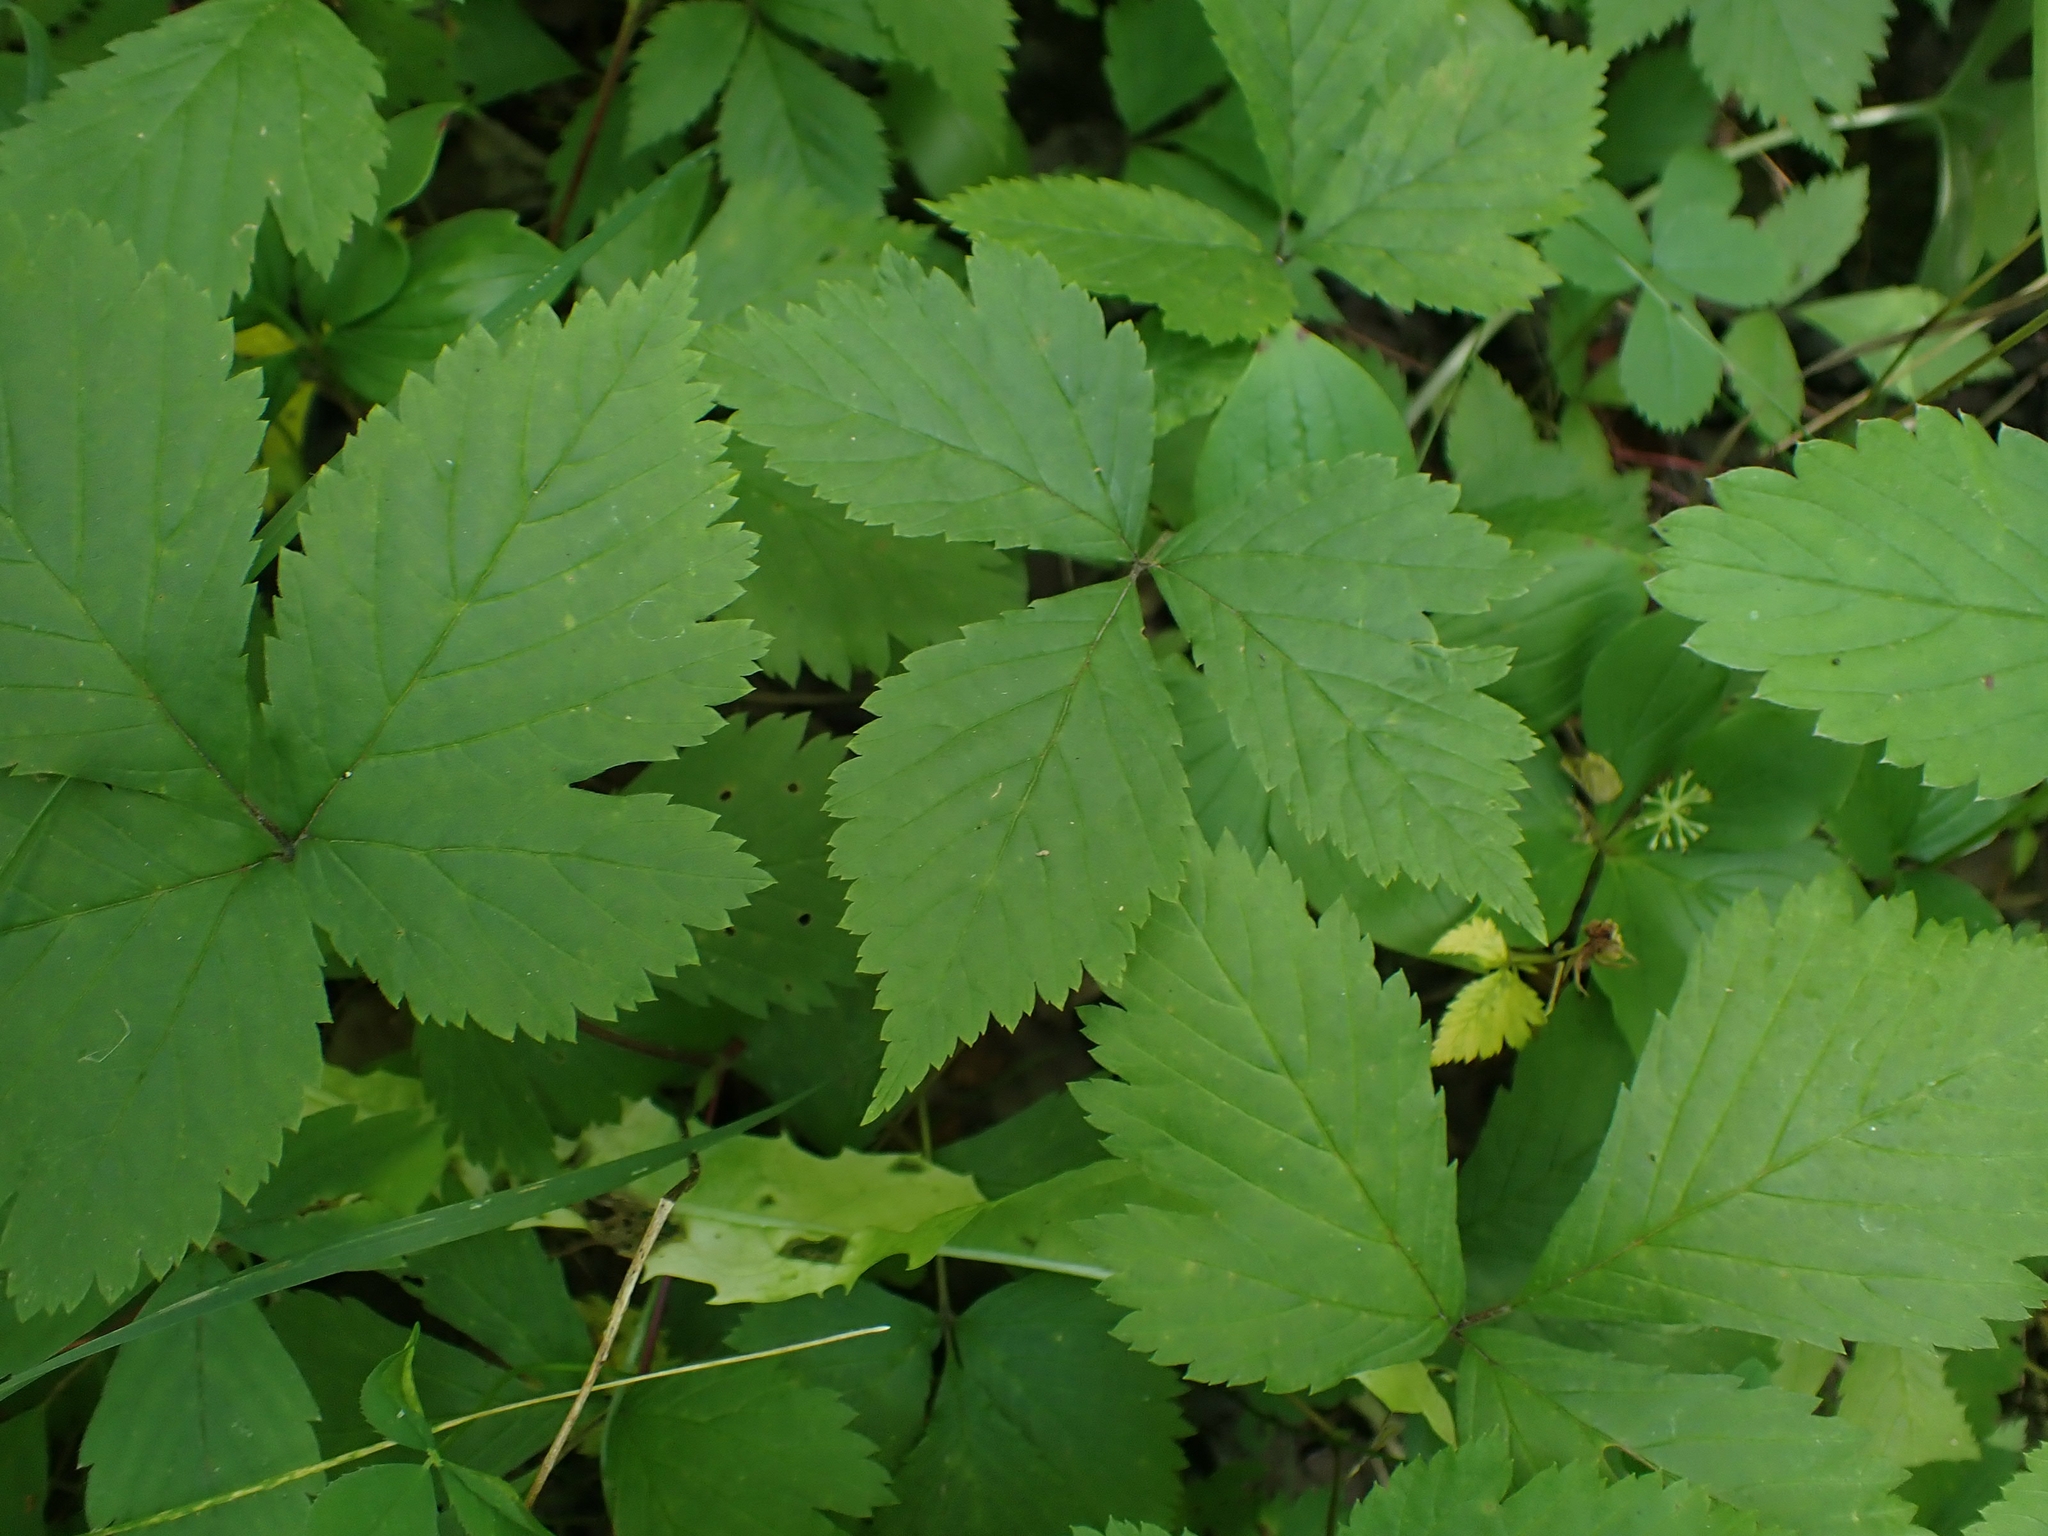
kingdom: Plantae
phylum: Tracheophyta
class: Magnoliopsida
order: Rosales
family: Rosaceae
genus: Rubus
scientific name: Rubus pubescens
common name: Dwarf raspberry
